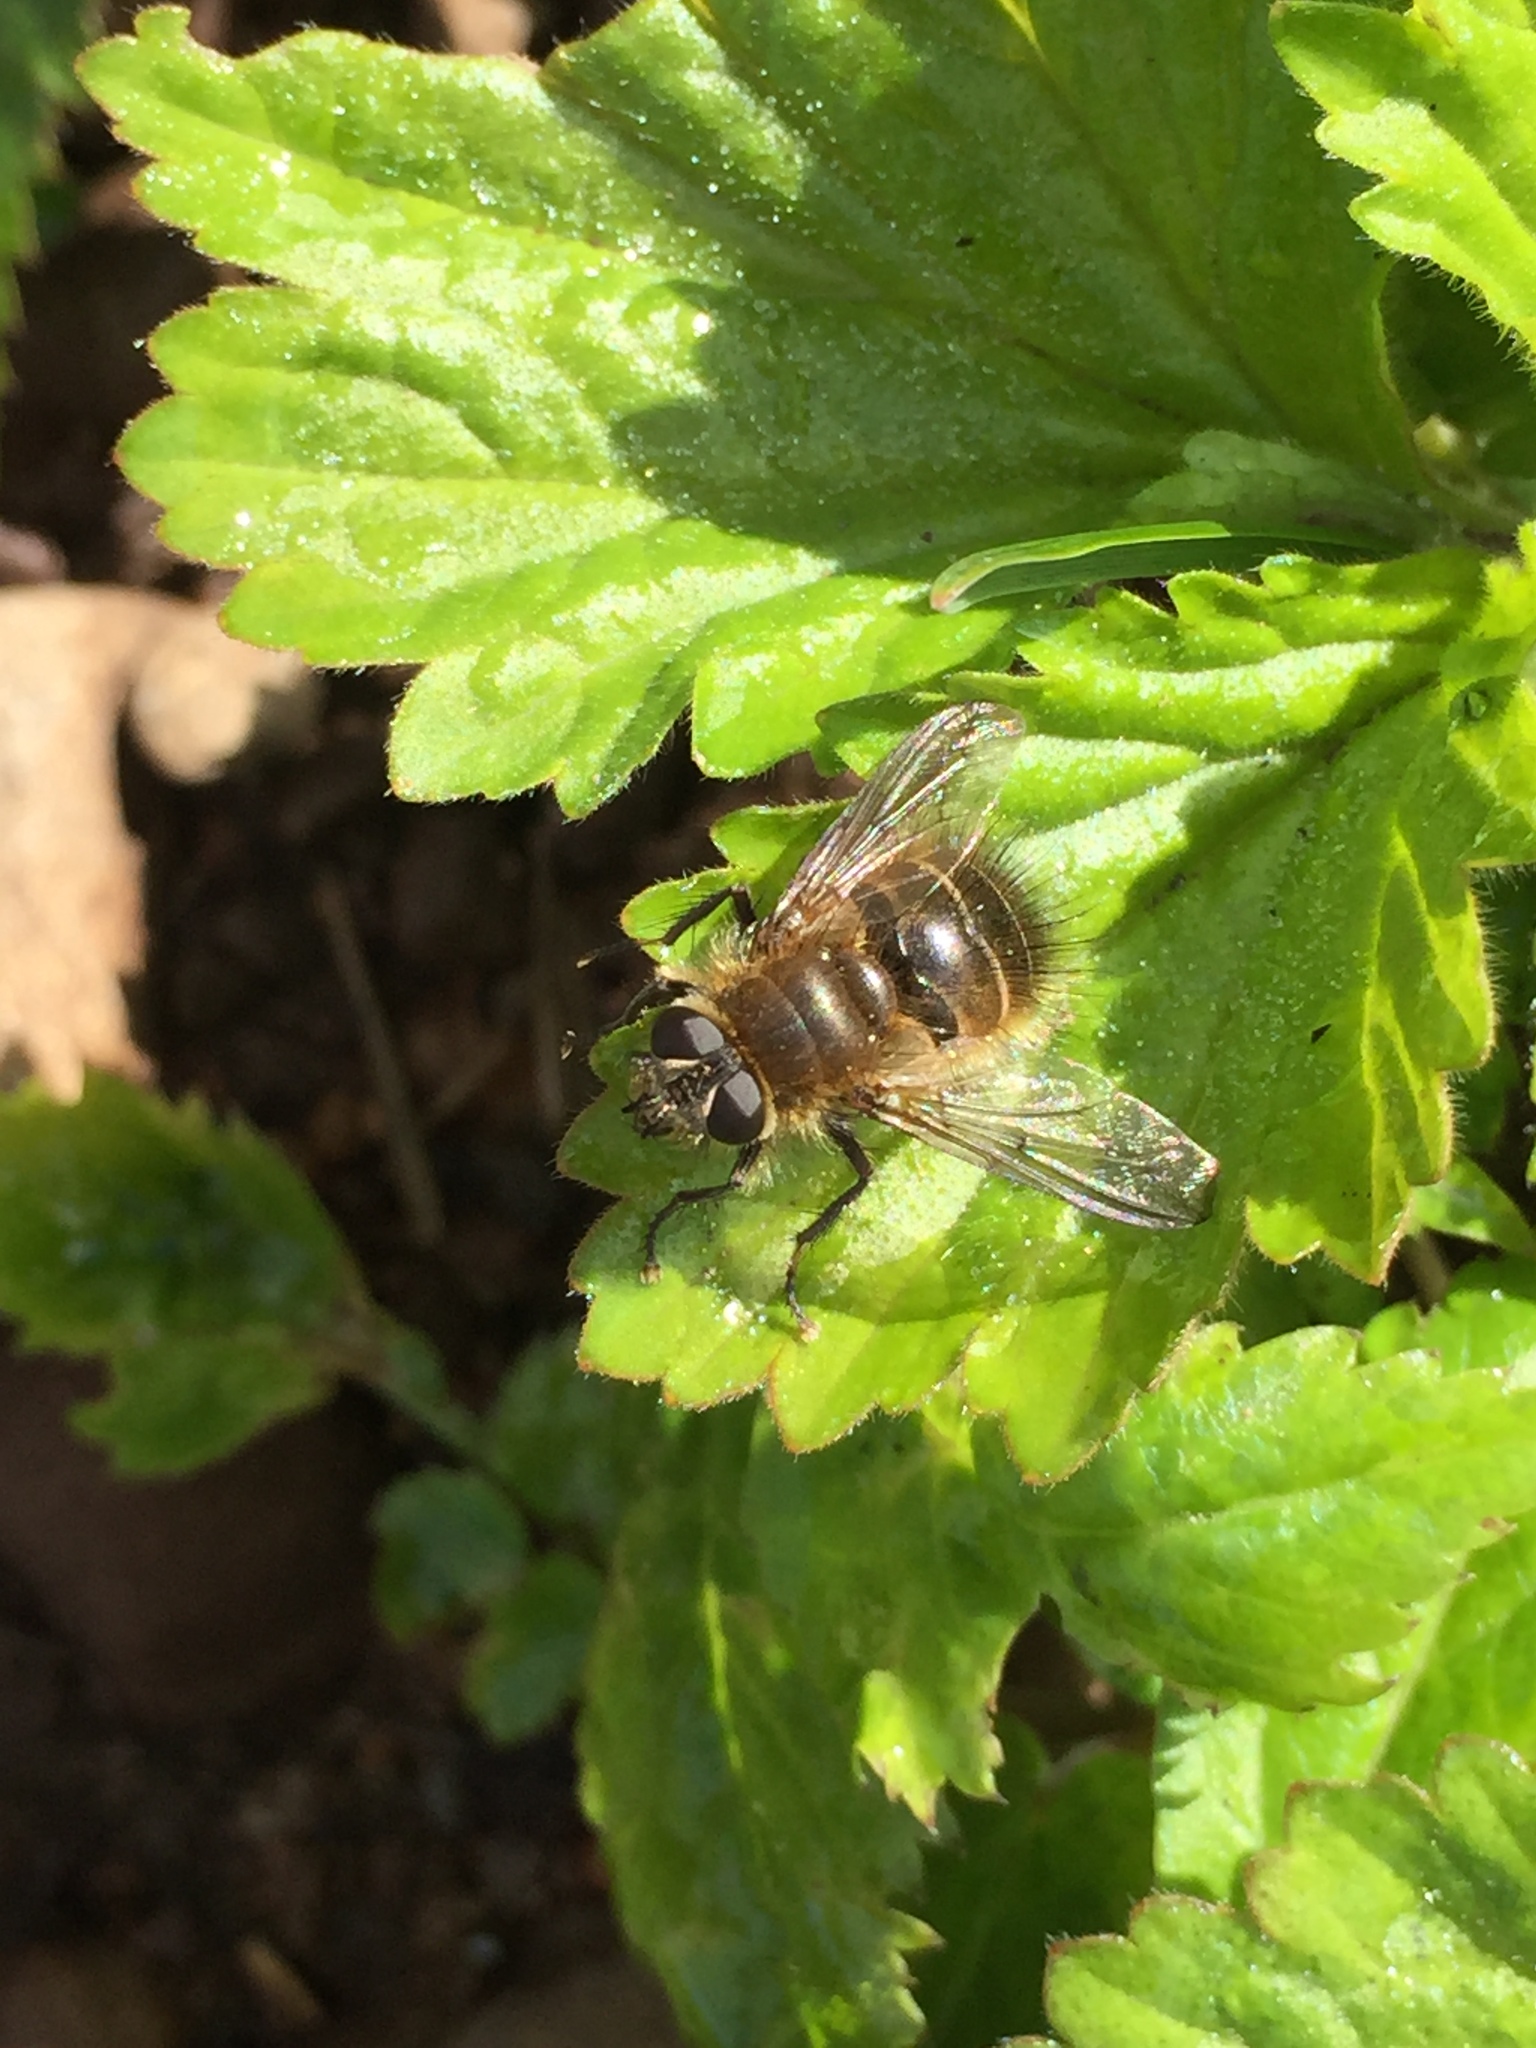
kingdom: Animalia
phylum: Arthropoda
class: Insecta
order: Diptera
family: Tachinidae
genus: Tachina
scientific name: Tachina ursina
